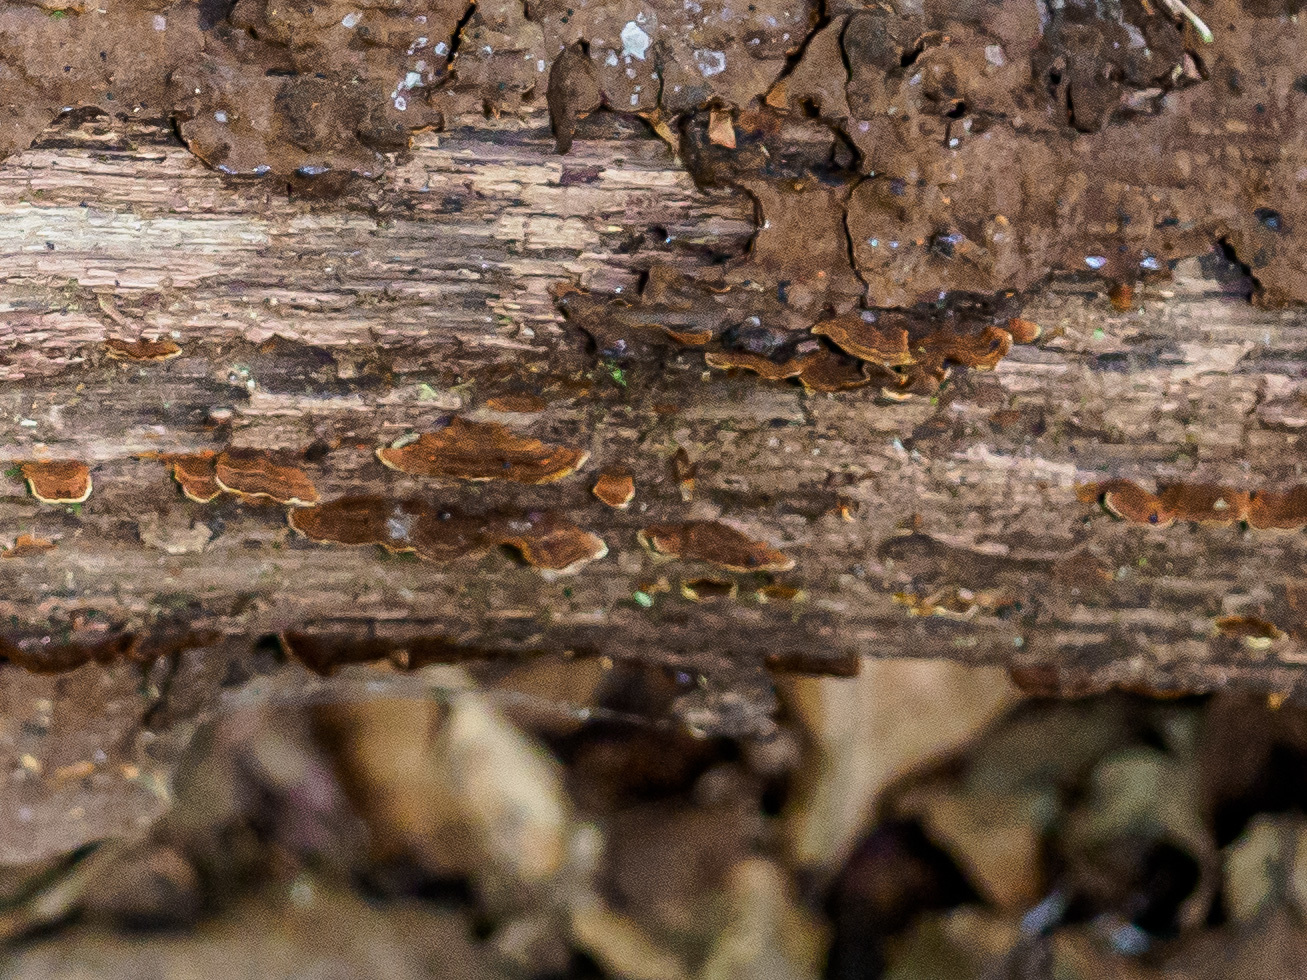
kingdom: Fungi
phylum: Basidiomycota
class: Agaricomycetes
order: Hymenochaetales
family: Hymenochaetaceae
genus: Hymenochaete
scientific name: Hymenochaete rubiginosa
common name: Oak curtain crust
